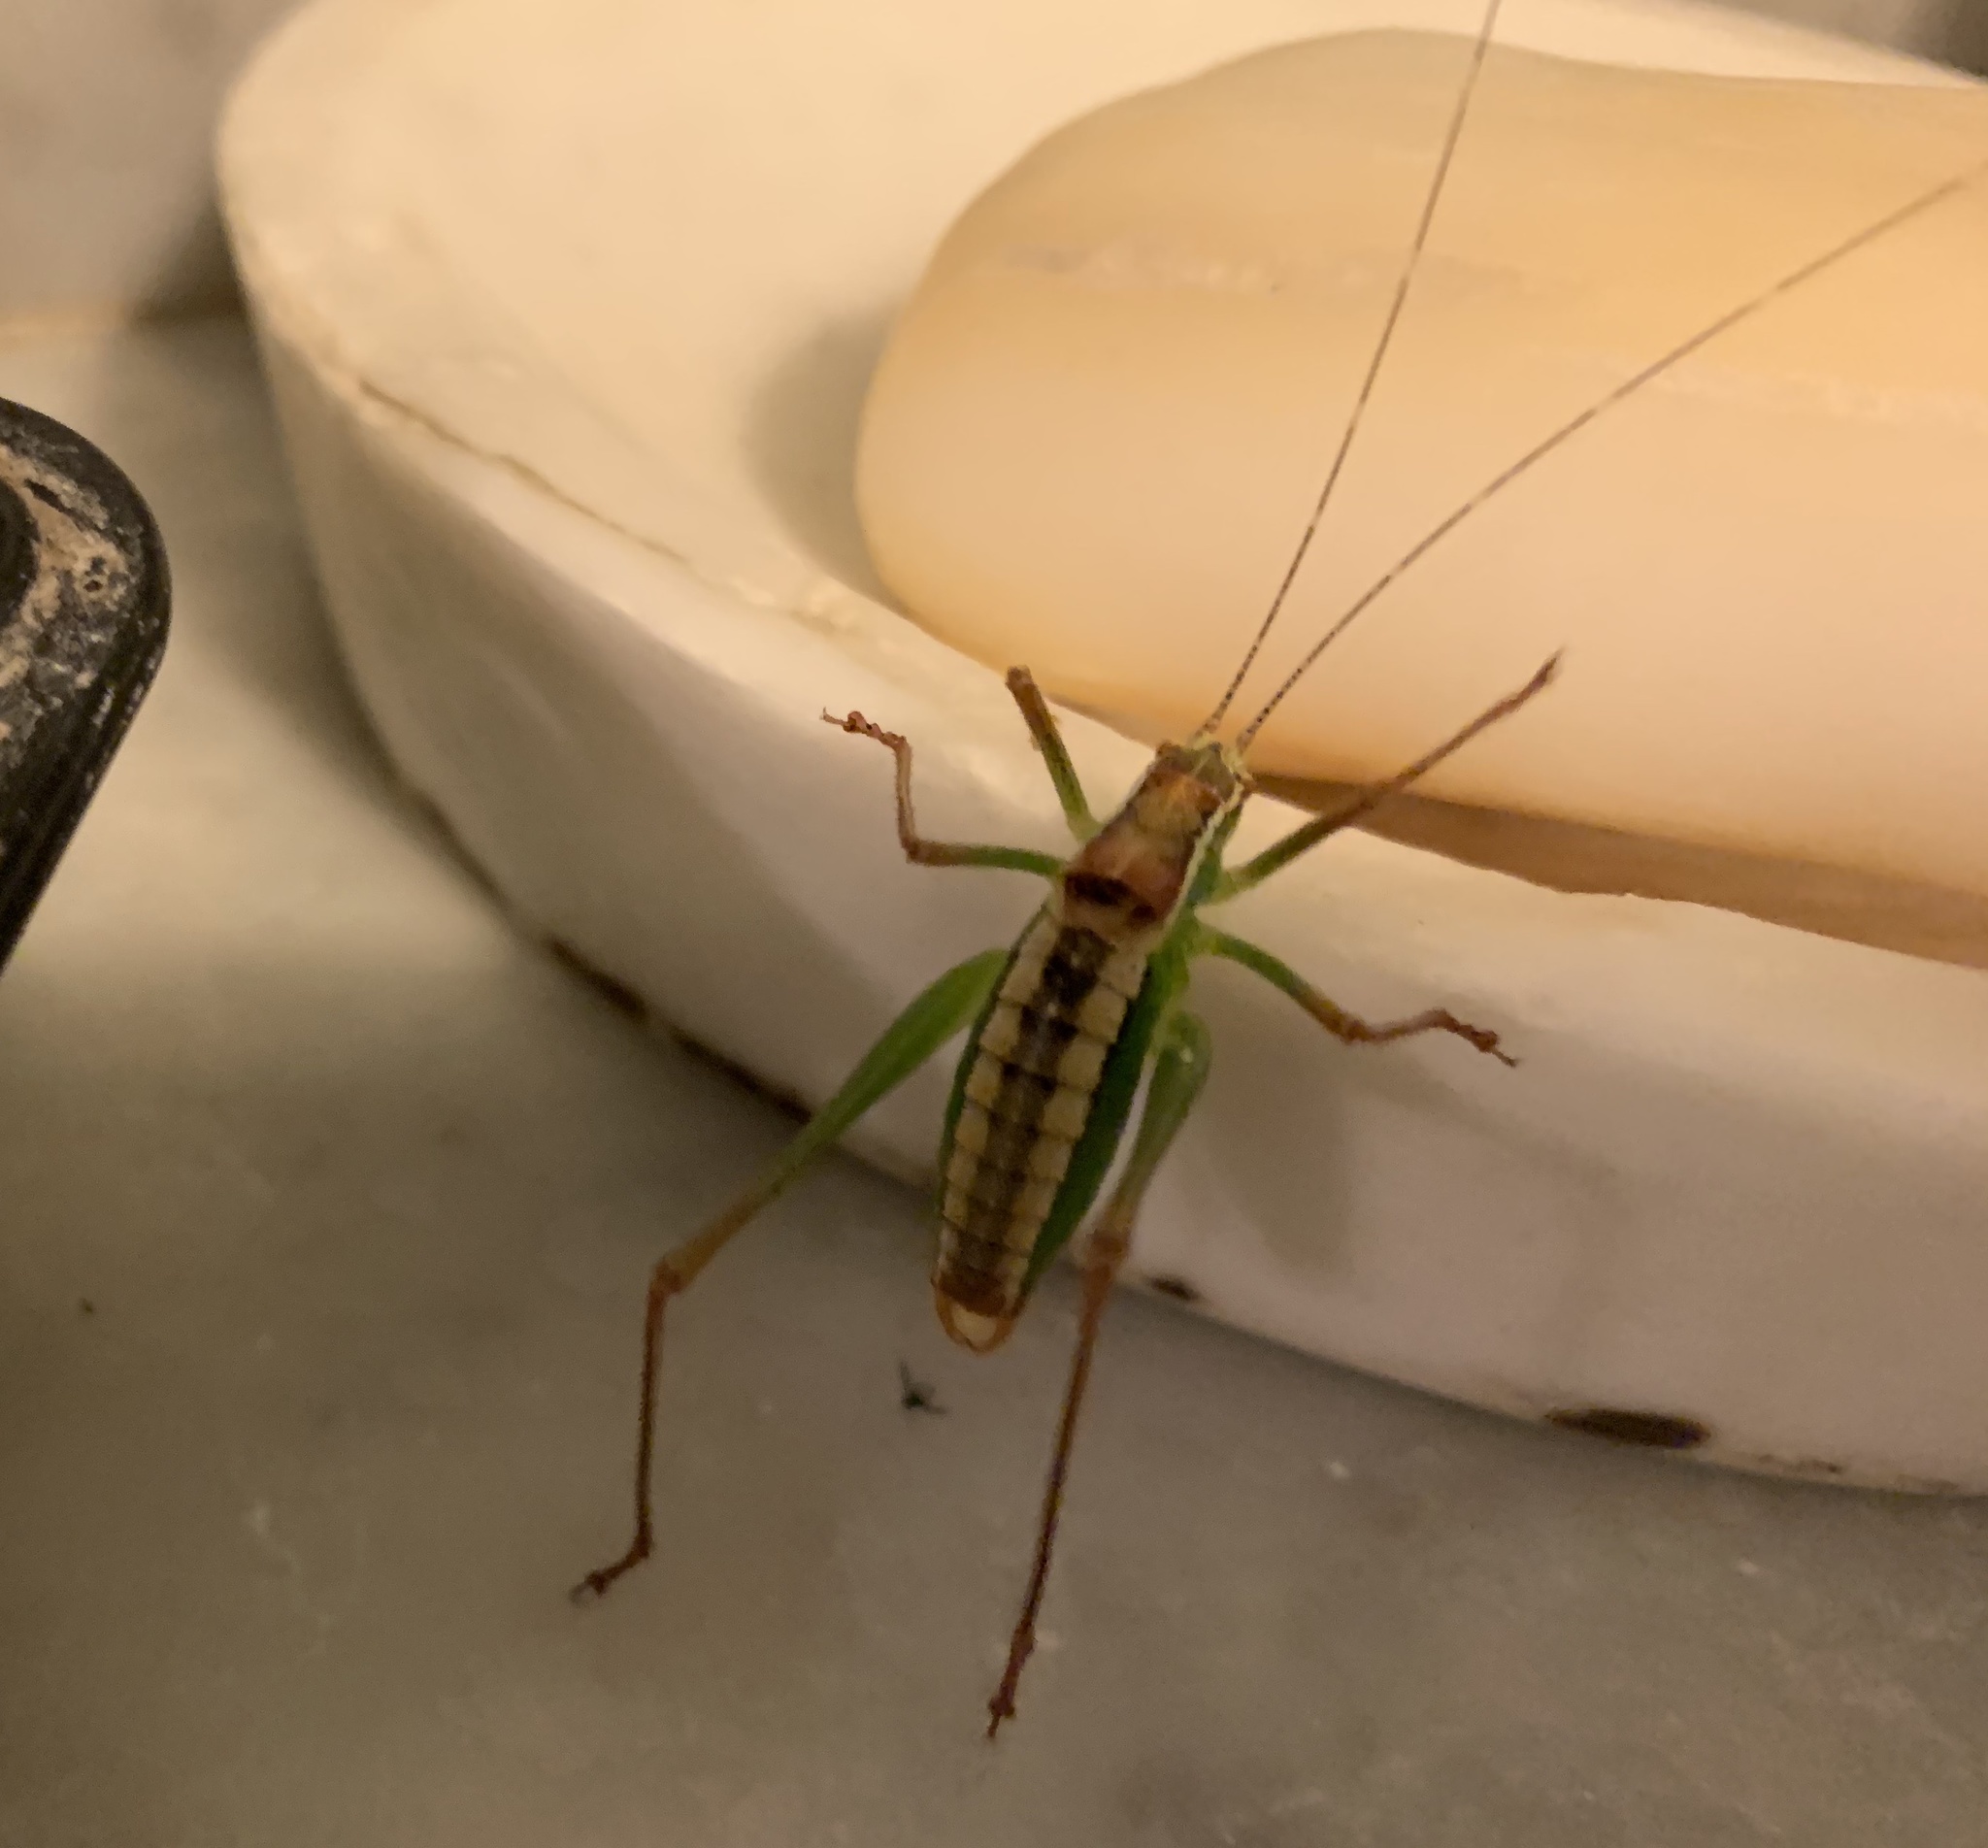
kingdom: Animalia
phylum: Arthropoda
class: Insecta
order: Orthoptera
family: Tettigoniidae
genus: Poecilimon
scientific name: Poecilimon superbus
